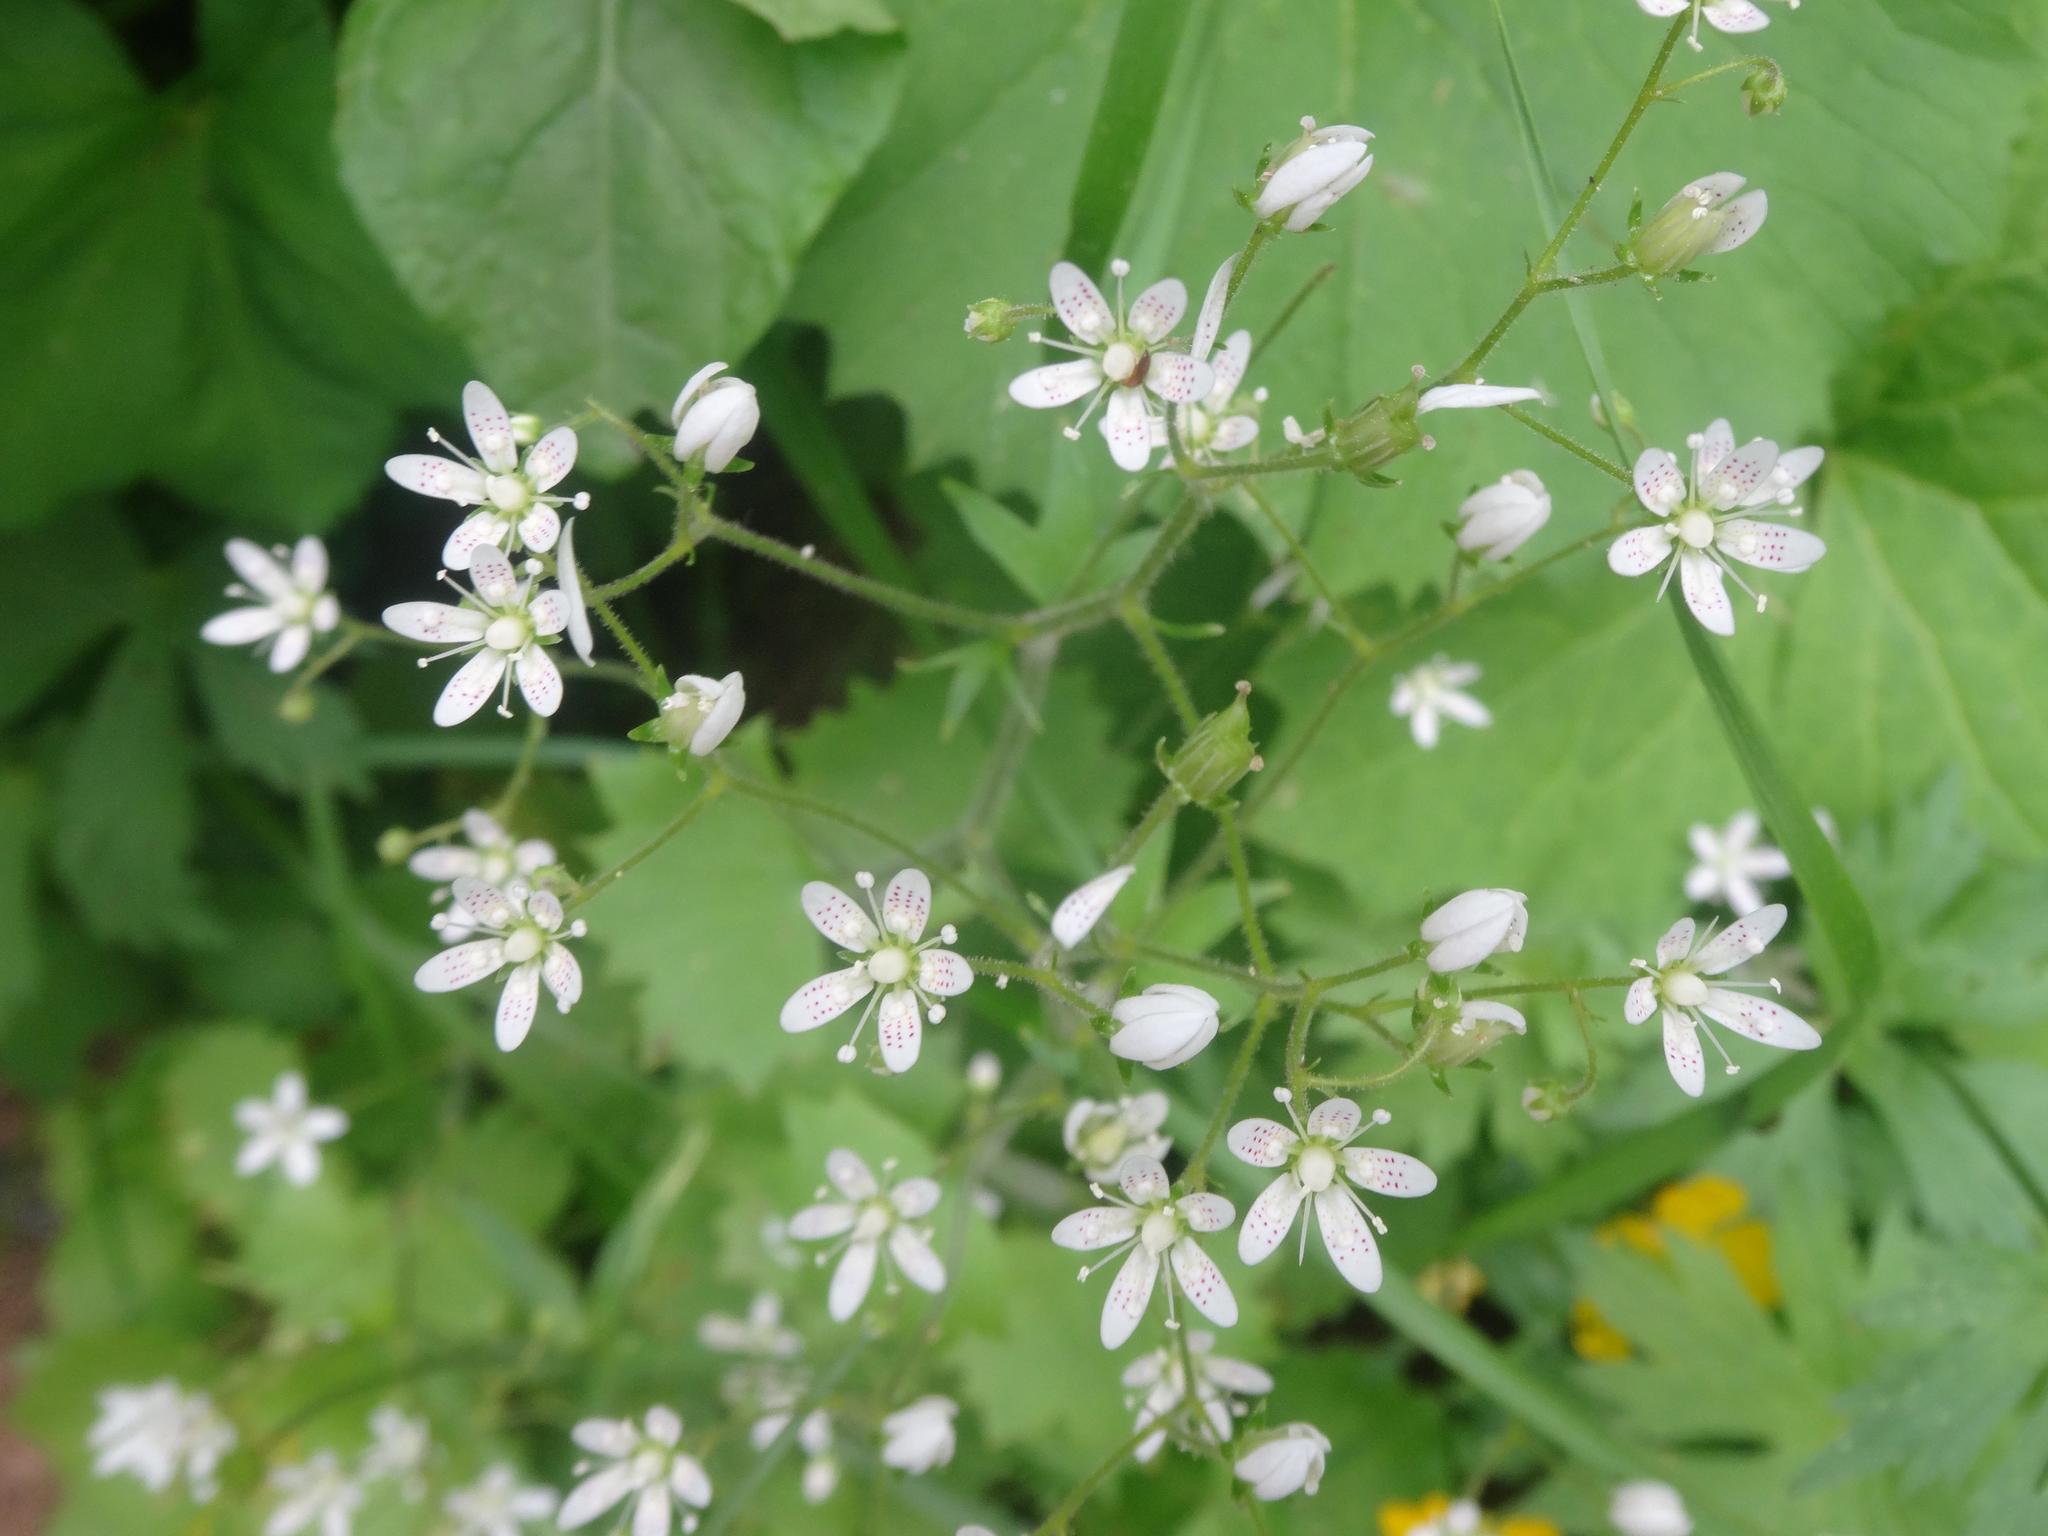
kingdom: Plantae
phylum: Tracheophyta
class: Magnoliopsida
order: Saxifragales
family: Saxifragaceae
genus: Saxifraga
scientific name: Saxifraga rotundifolia
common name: Round-leaved saxifrage
